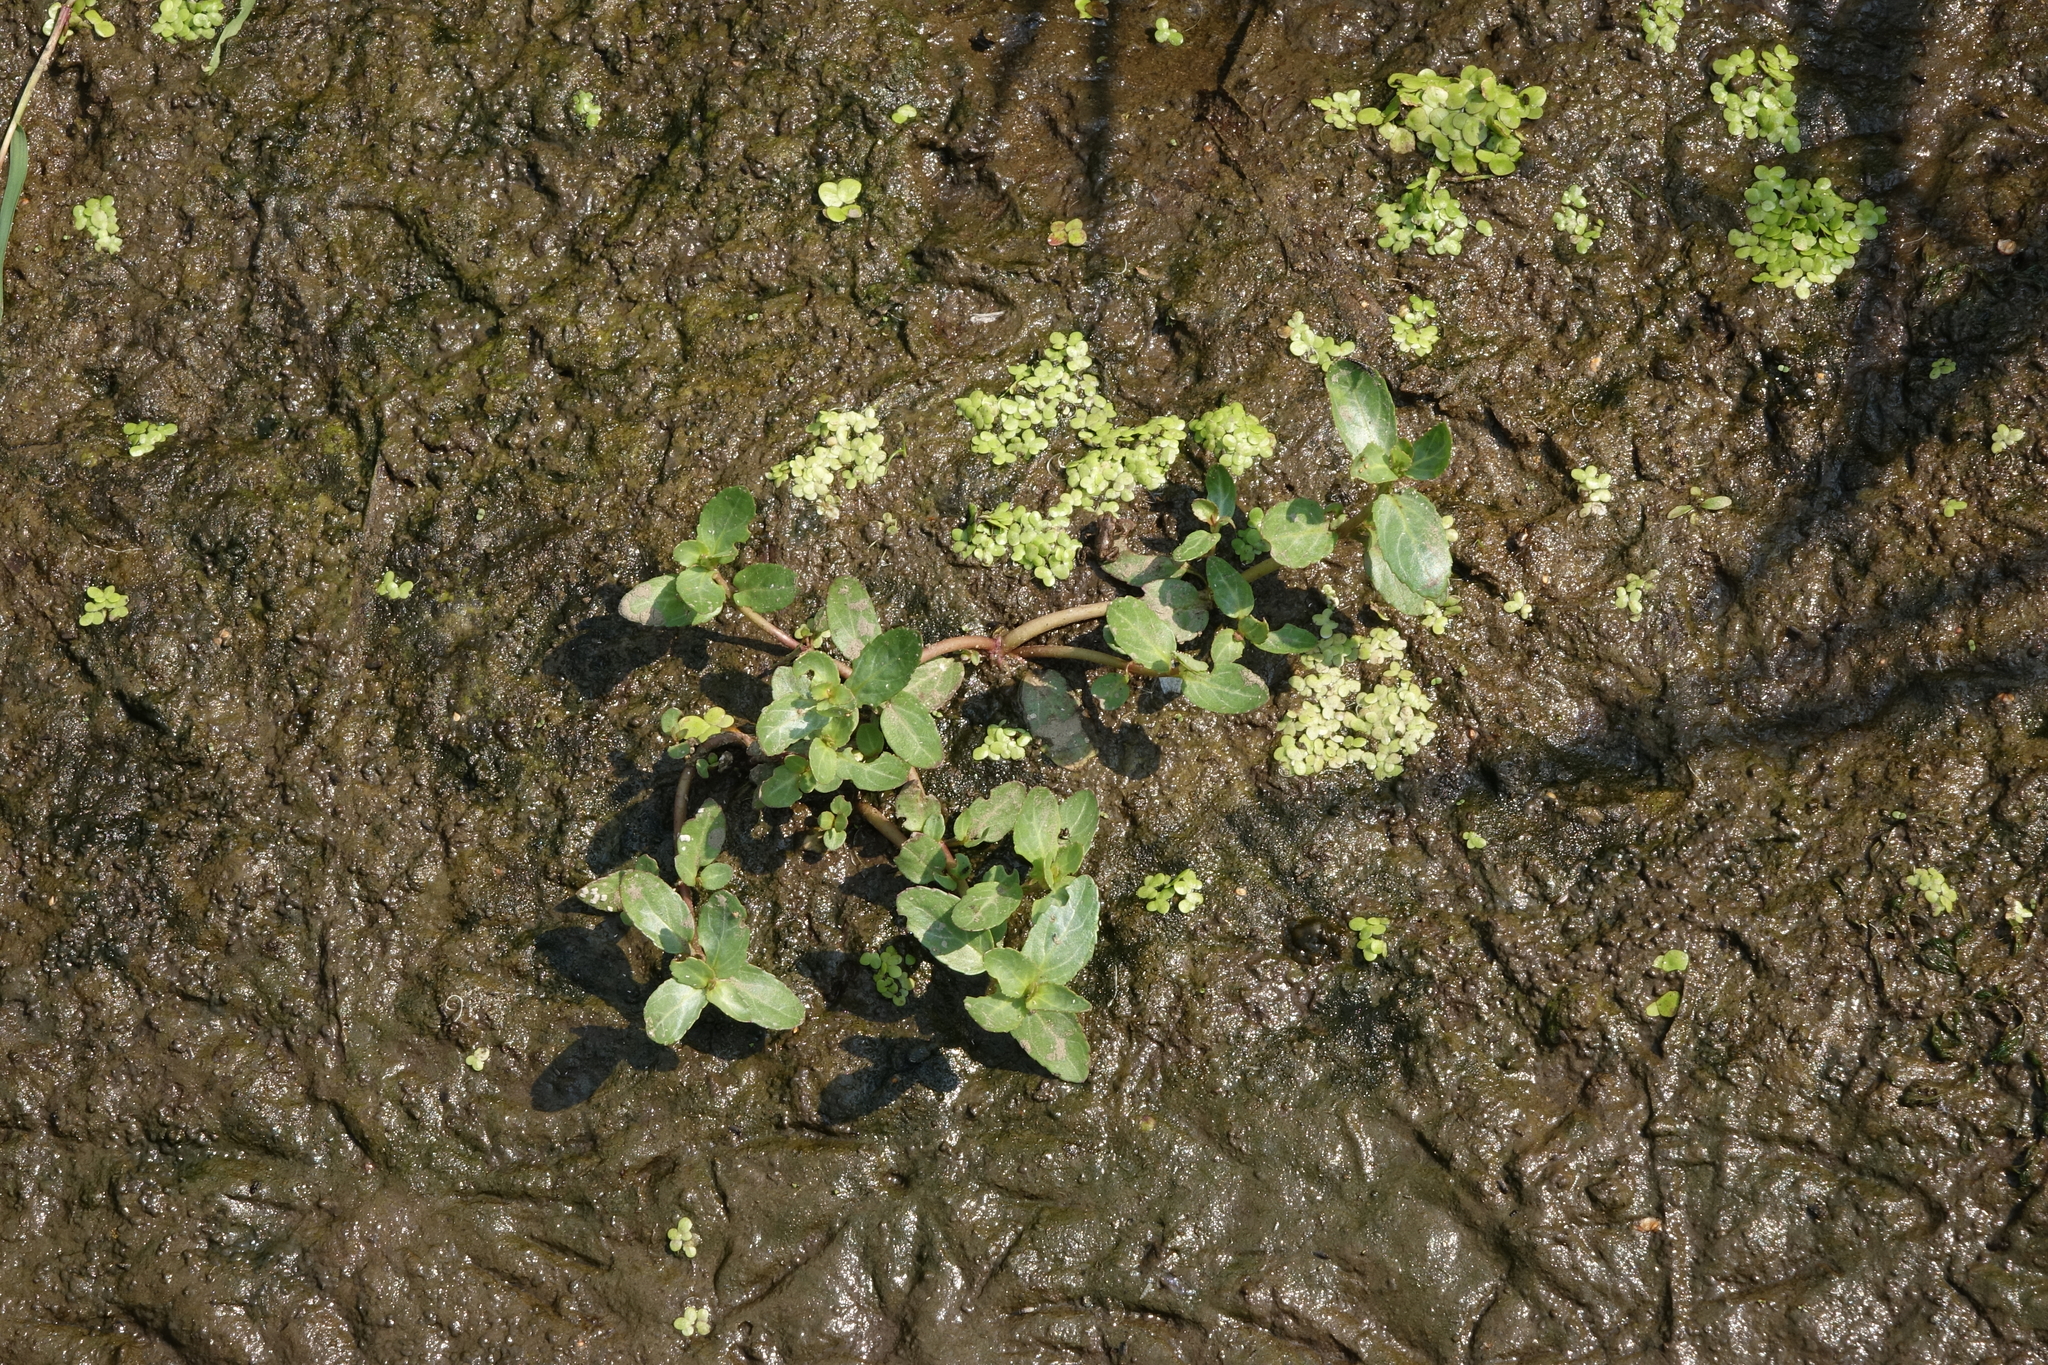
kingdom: Plantae
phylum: Tracheophyta
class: Magnoliopsida
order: Lamiales
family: Plantaginaceae
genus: Veronica
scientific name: Veronica beccabunga
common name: Brooklime
